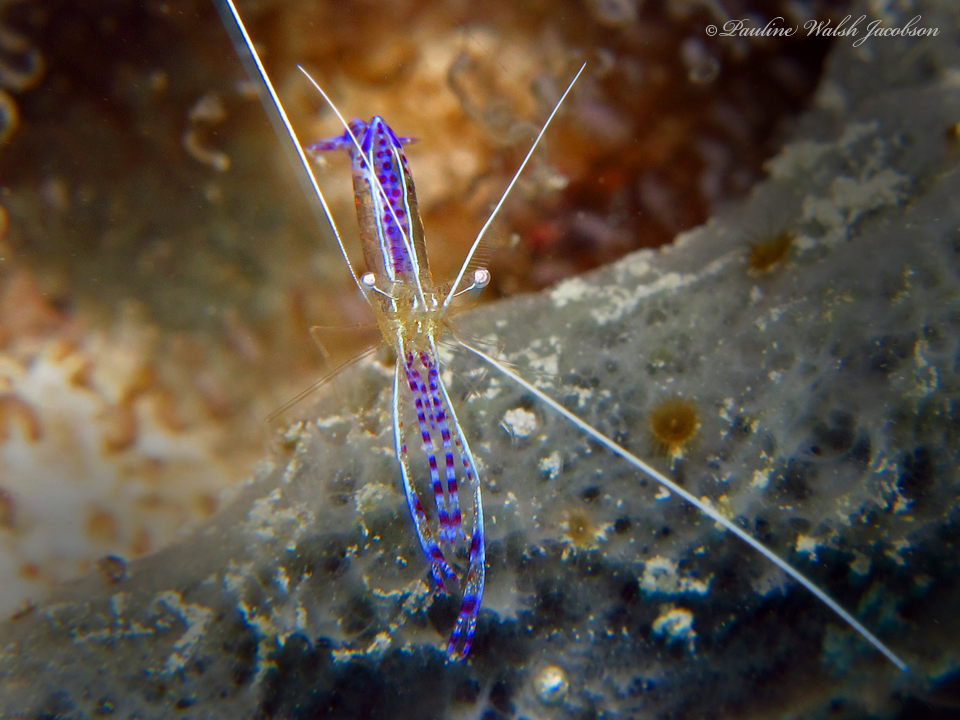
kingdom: Animalia
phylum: Arthropoda
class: Malacostraca
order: Decapoda
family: Palaemonidae
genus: Ancylomenes
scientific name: Ancylomenes pedersoni
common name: Pederson's cleaning shrimp
